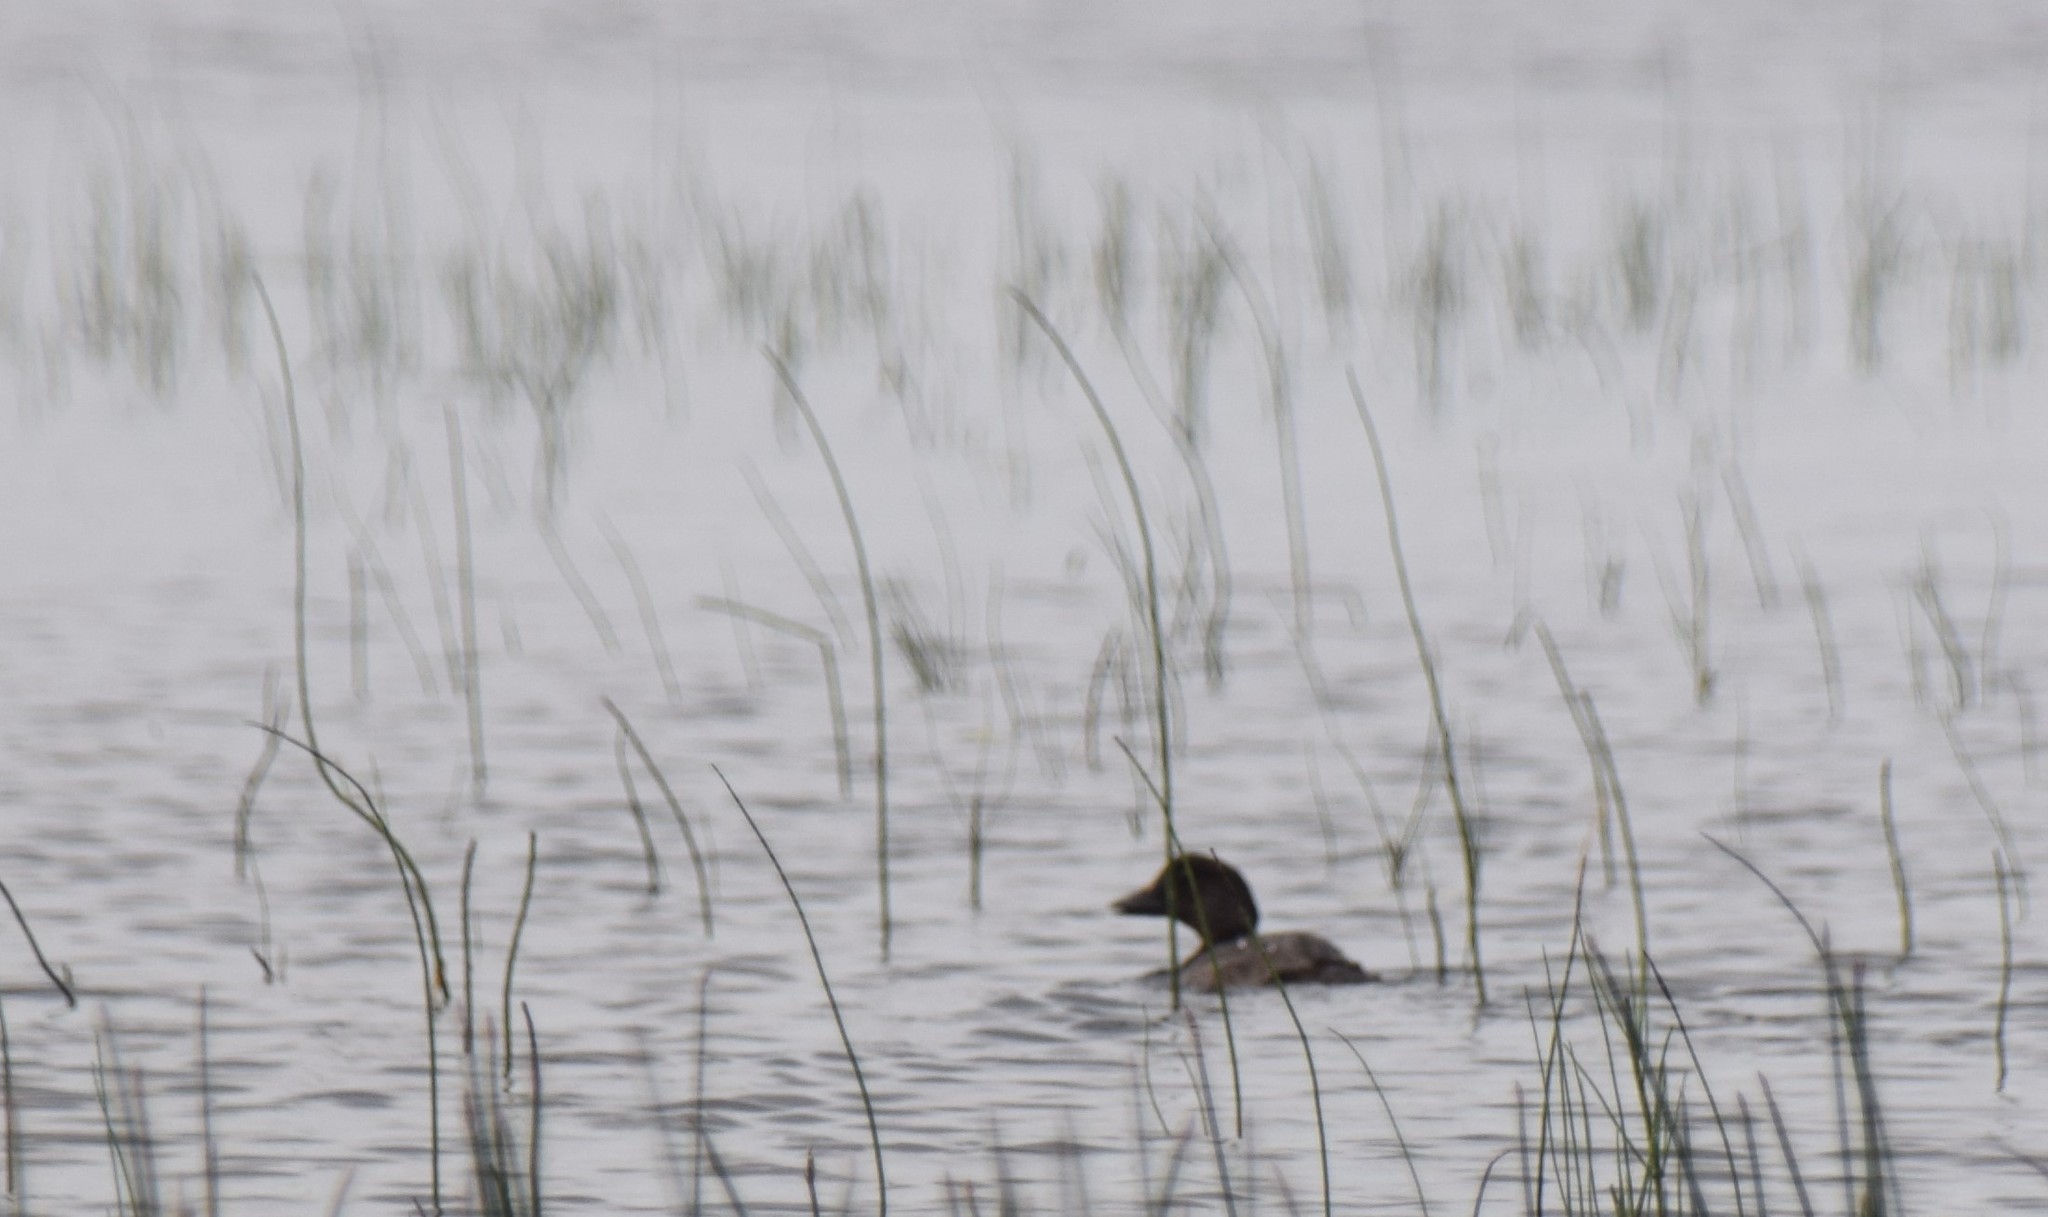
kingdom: Animalia
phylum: Chordata
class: Aves
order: Anseriformes
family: Anatidae
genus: Bucephala
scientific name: Bucephala clangula
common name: Common goldeneye
